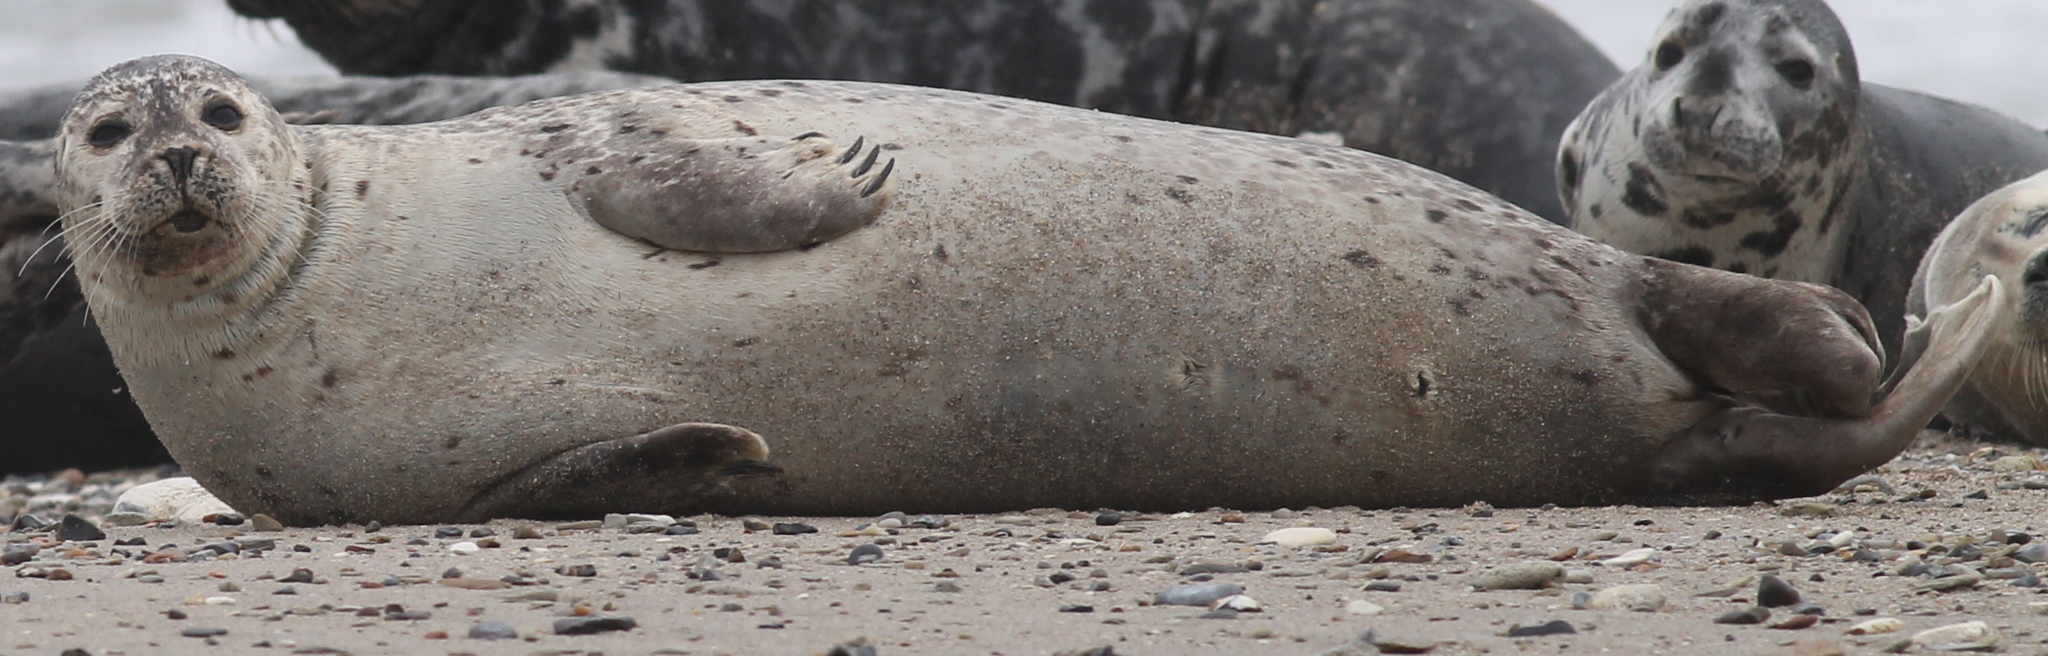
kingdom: Animalia
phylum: Chordata
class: Mammalia
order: Carnivora
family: Phocidae
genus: Phoca
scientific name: Phoca vitulina
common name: Harbor seal
